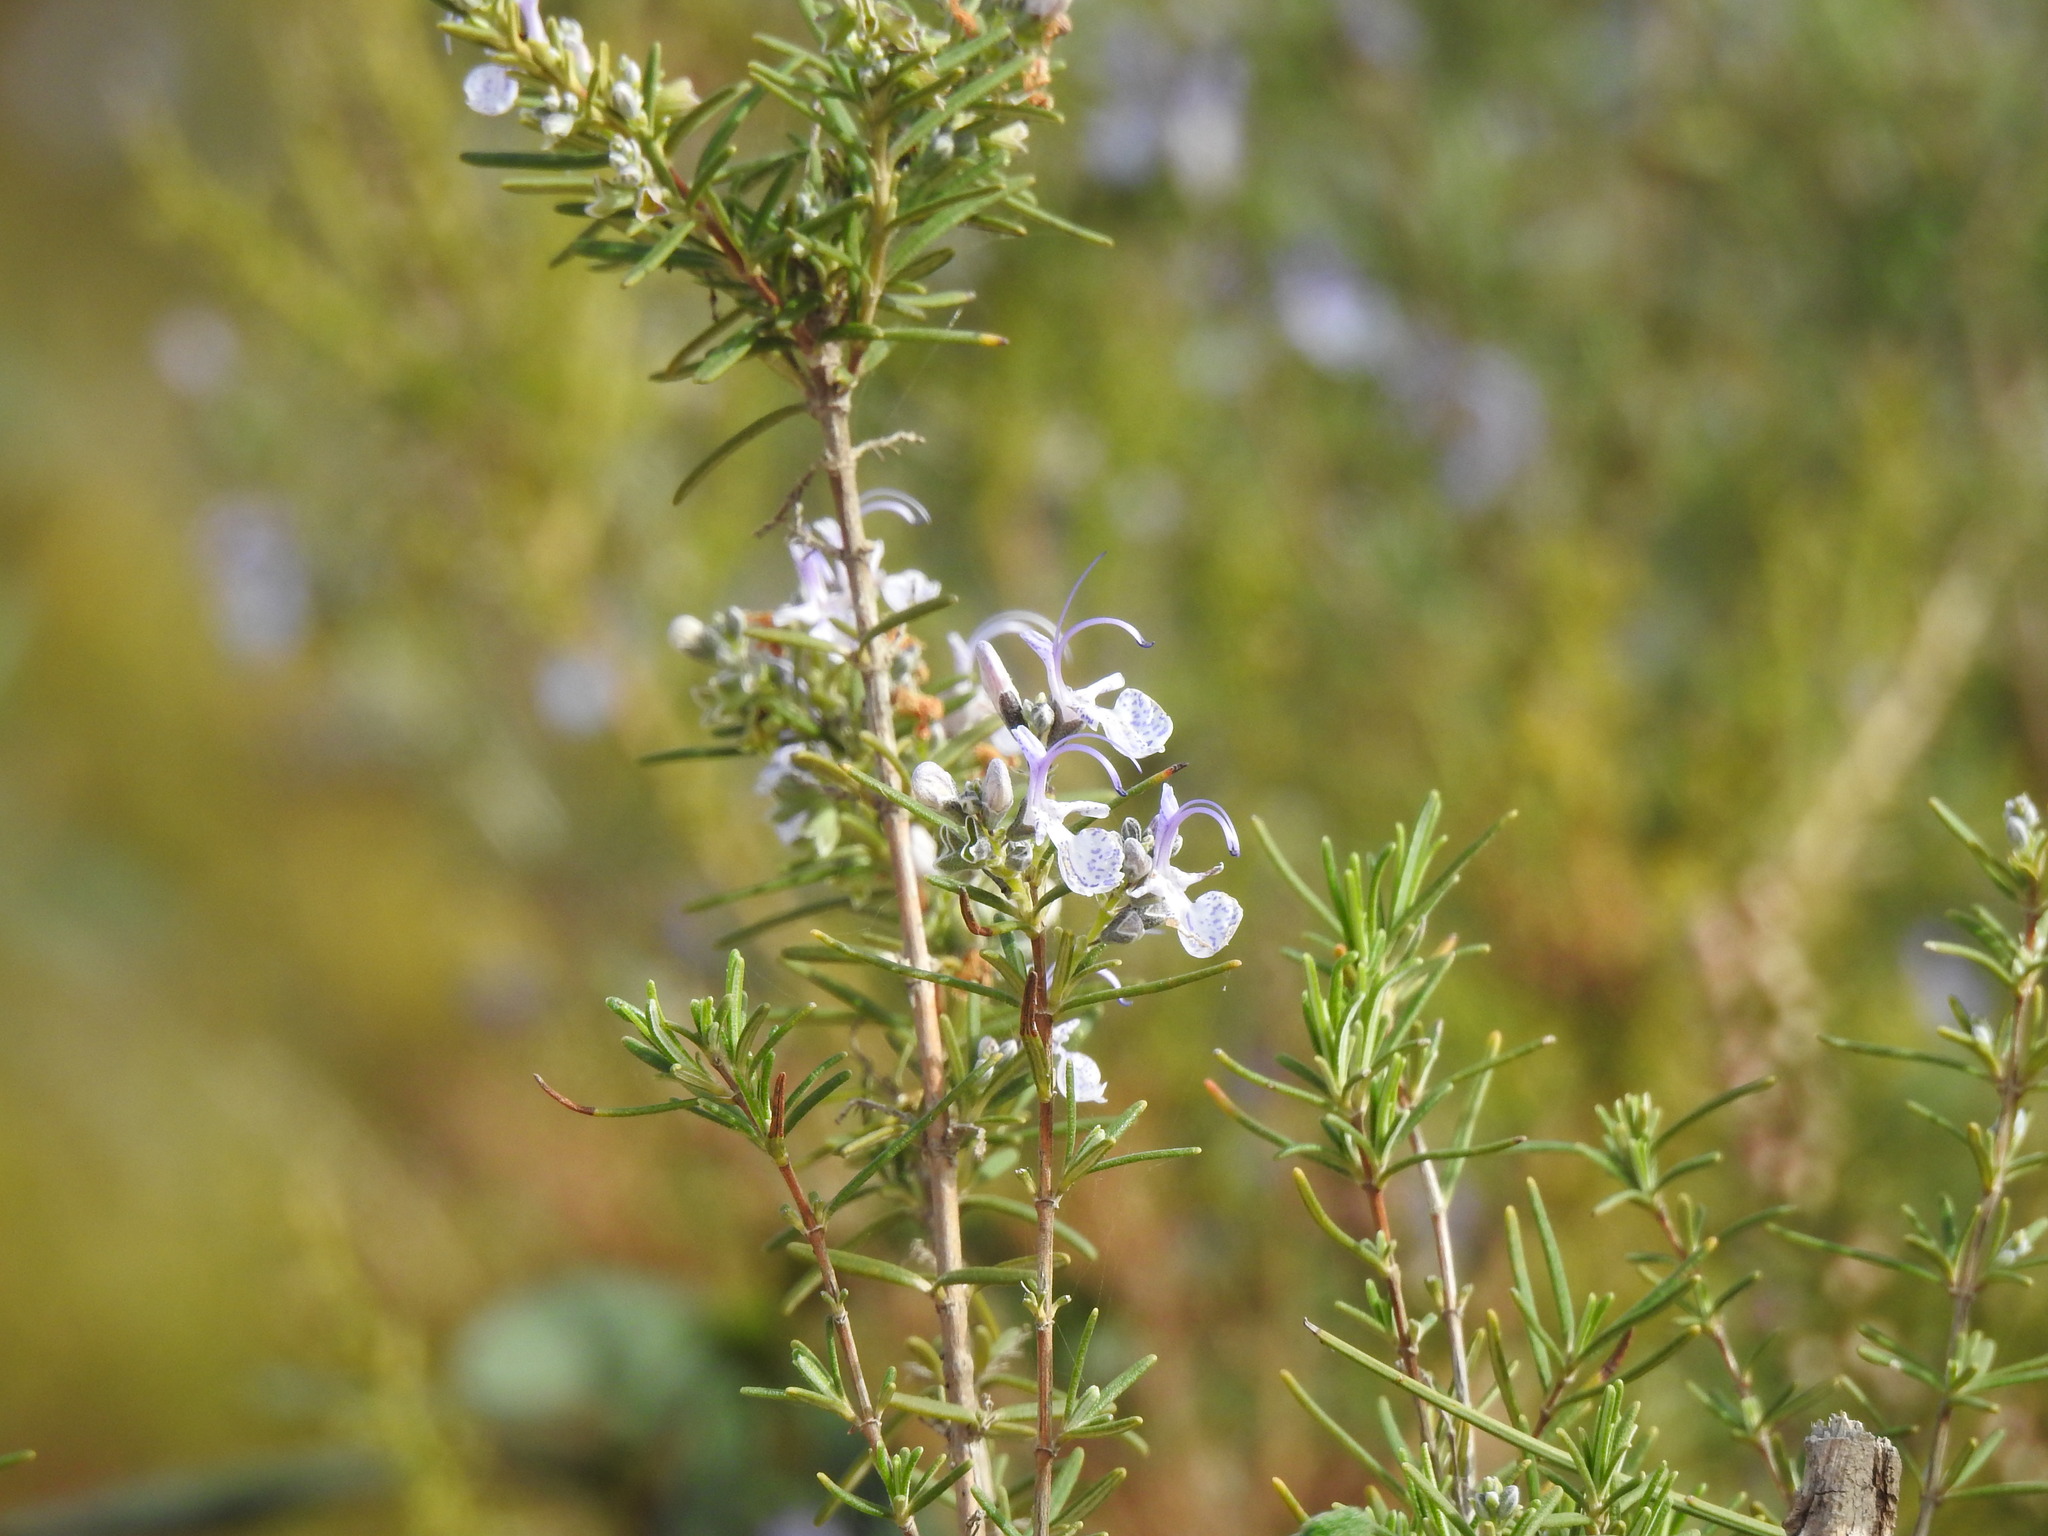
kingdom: Plantae
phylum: Tracheophyta
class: Magnoliopsida
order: Lamiales
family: Lamiaceae
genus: Salvia
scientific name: Salvia rosmarinus
